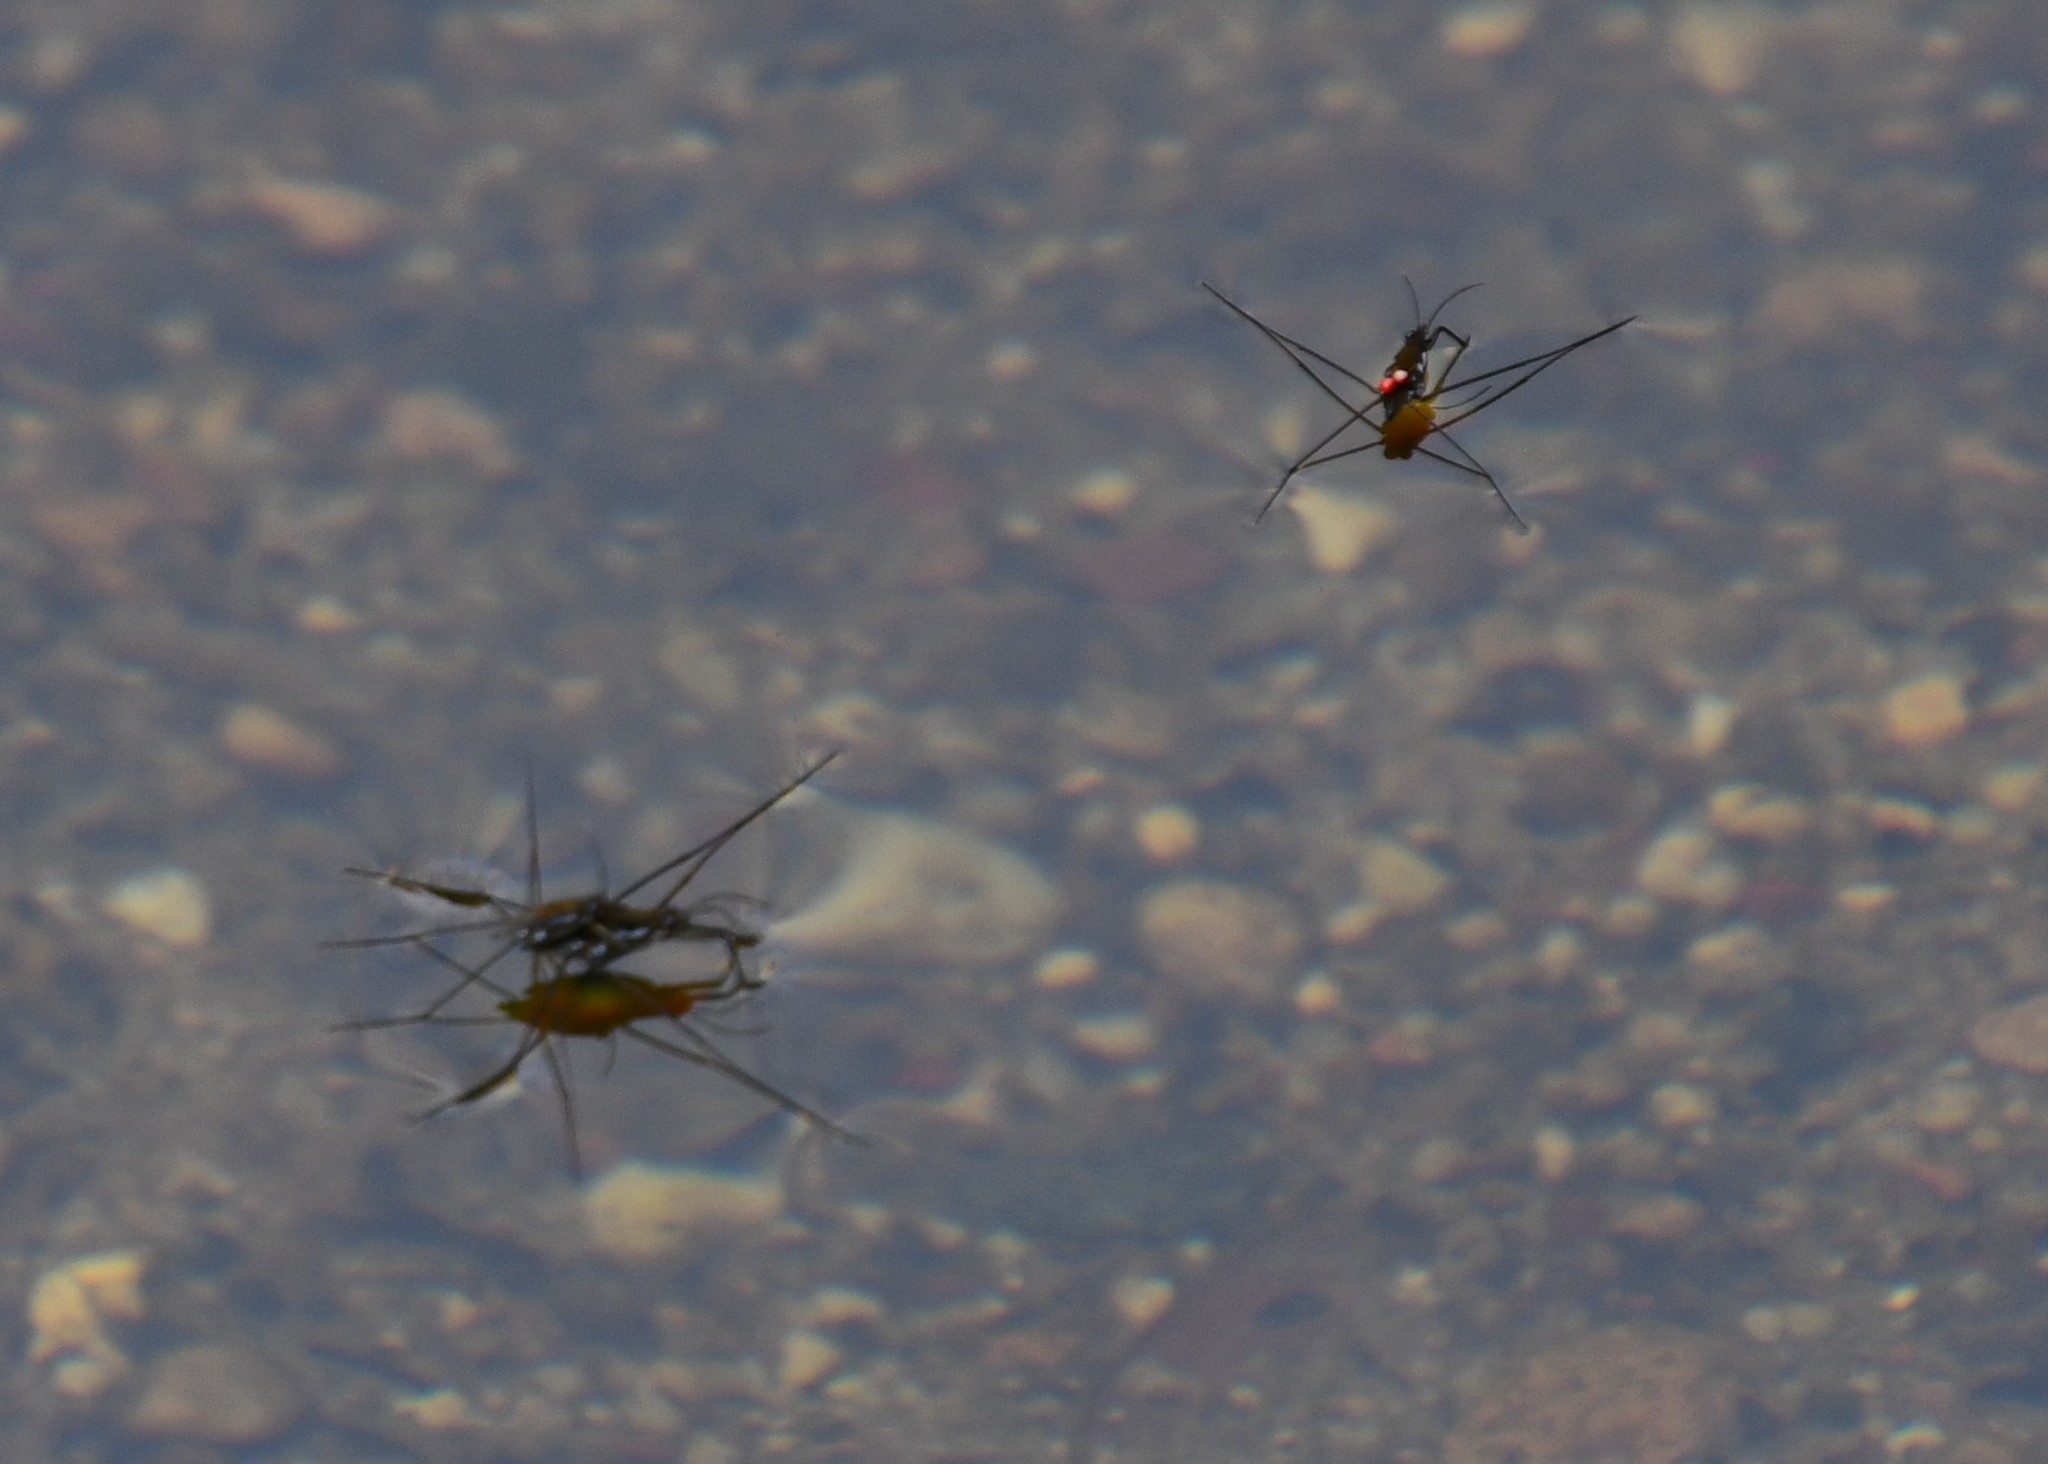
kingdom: Animalia
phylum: Arthropoda
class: Insecta
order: Hemiptera
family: Gerridae
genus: Tenagogerris
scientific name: Tenagogerris euphrosyne
